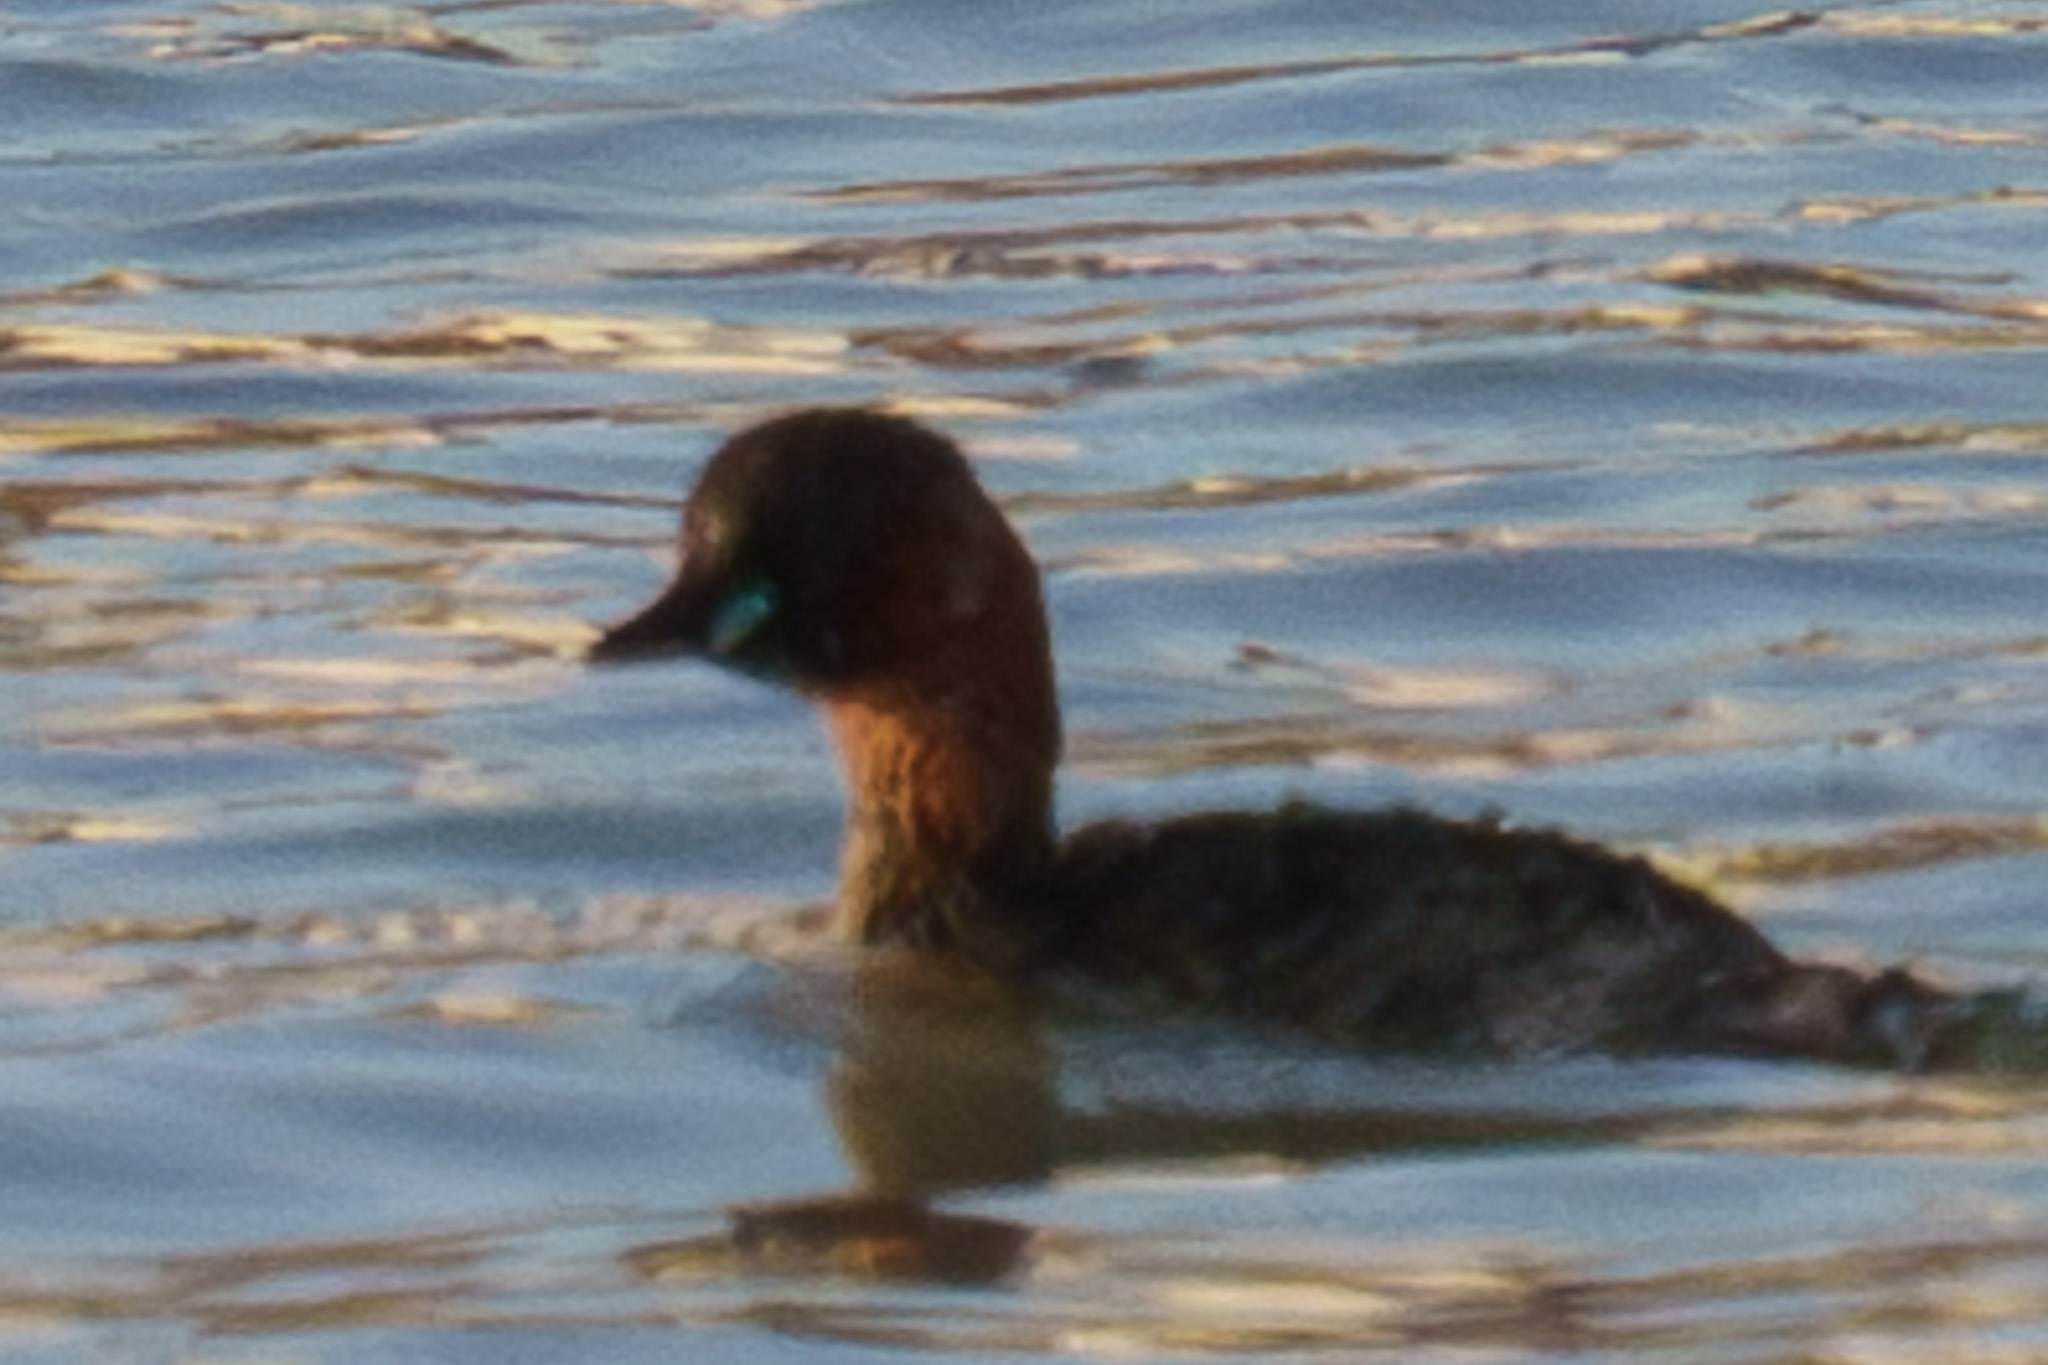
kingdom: Animalia
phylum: Chordata
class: Aves
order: Podicipediformes
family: Podicipedidae
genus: Tachybaptus
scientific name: Tachybaptus ruficollis
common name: Little grebe
